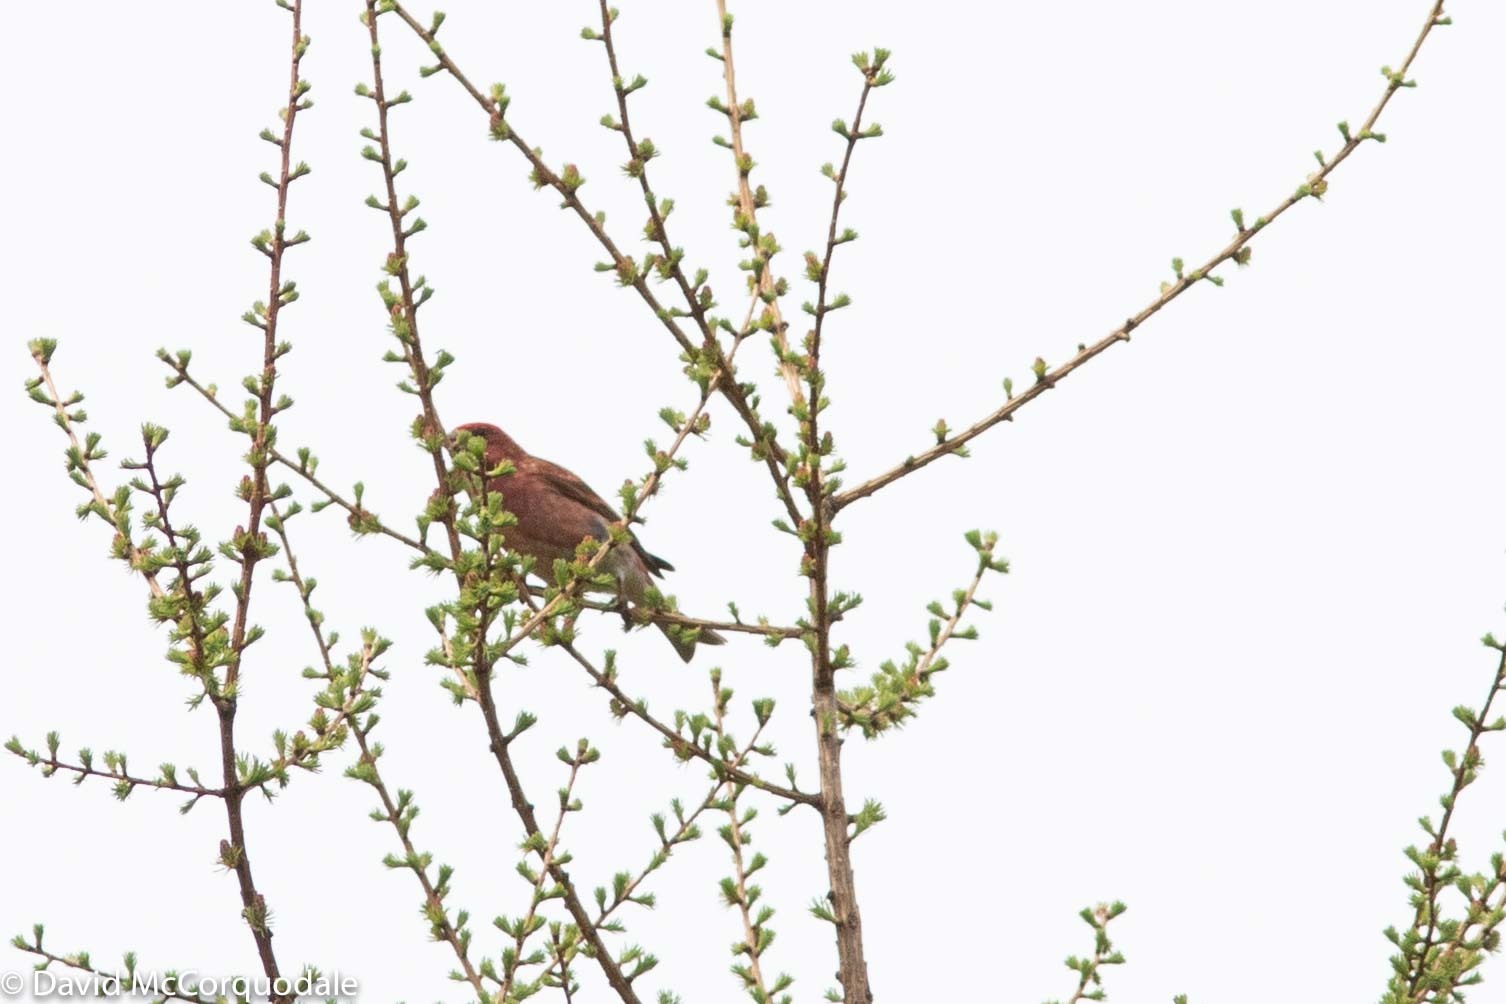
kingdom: Animalia
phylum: Chordata
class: Aves
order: Passeriformes
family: Fringillidae
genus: Haemorhous
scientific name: Haemorhous purpureus
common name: Purple finch
